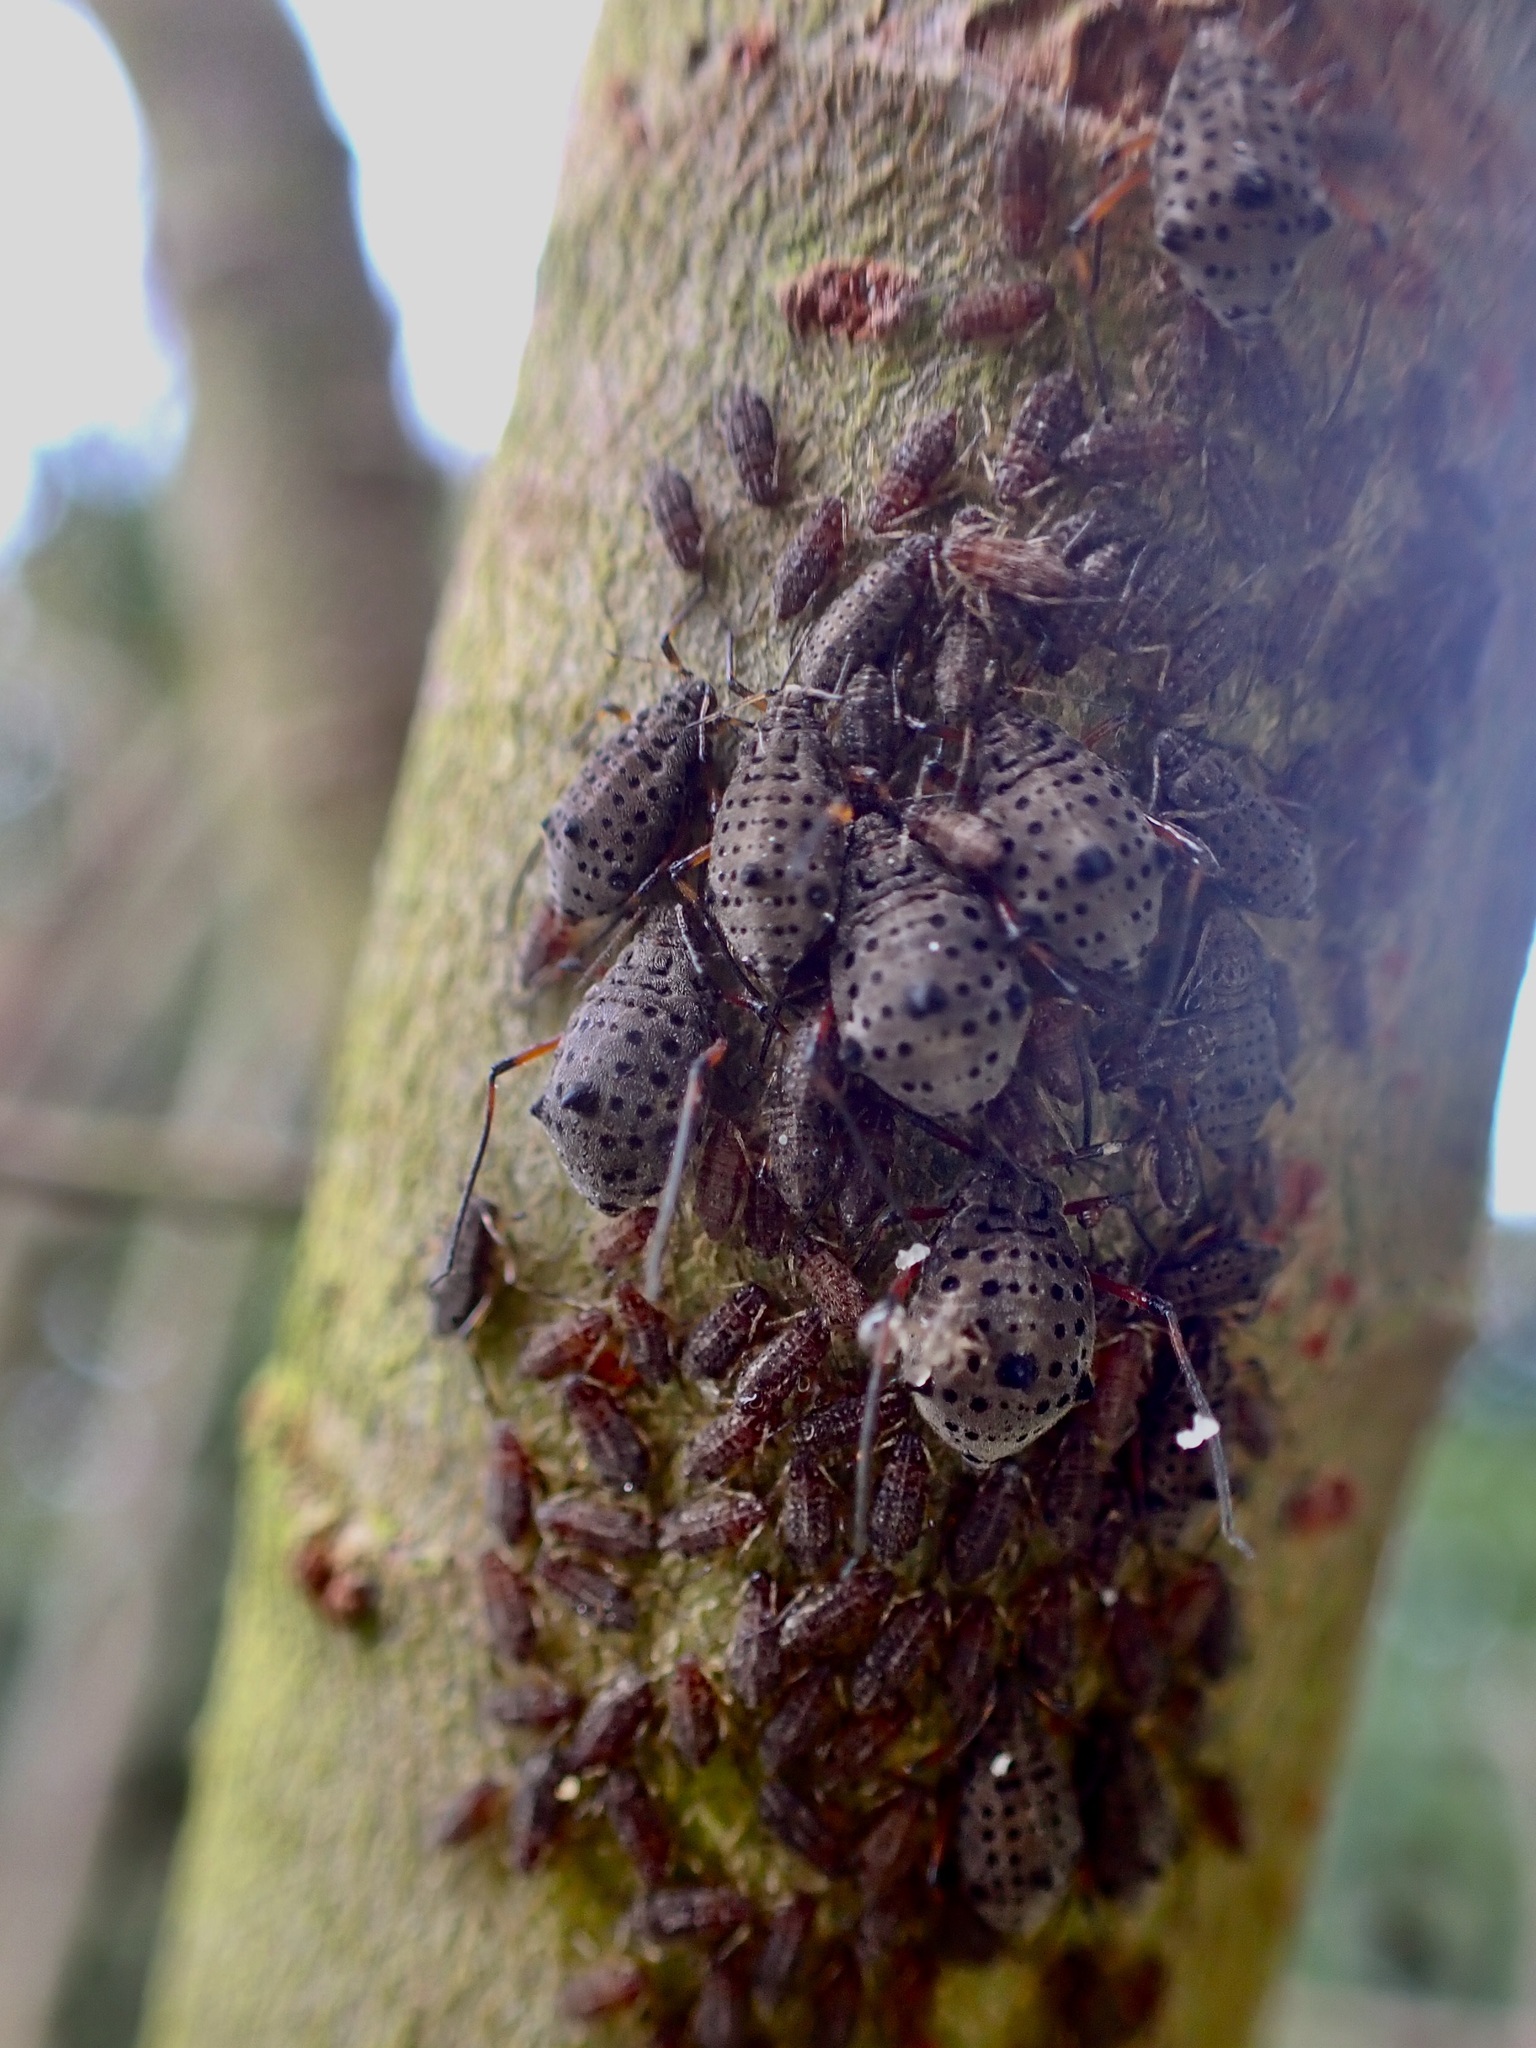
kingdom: Animalia
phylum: Arthropoda
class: Insecta
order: Hemiptera
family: Aphididae
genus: Tuberolachnus
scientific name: Tuberolachnus salignus
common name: Giant willow aphid
